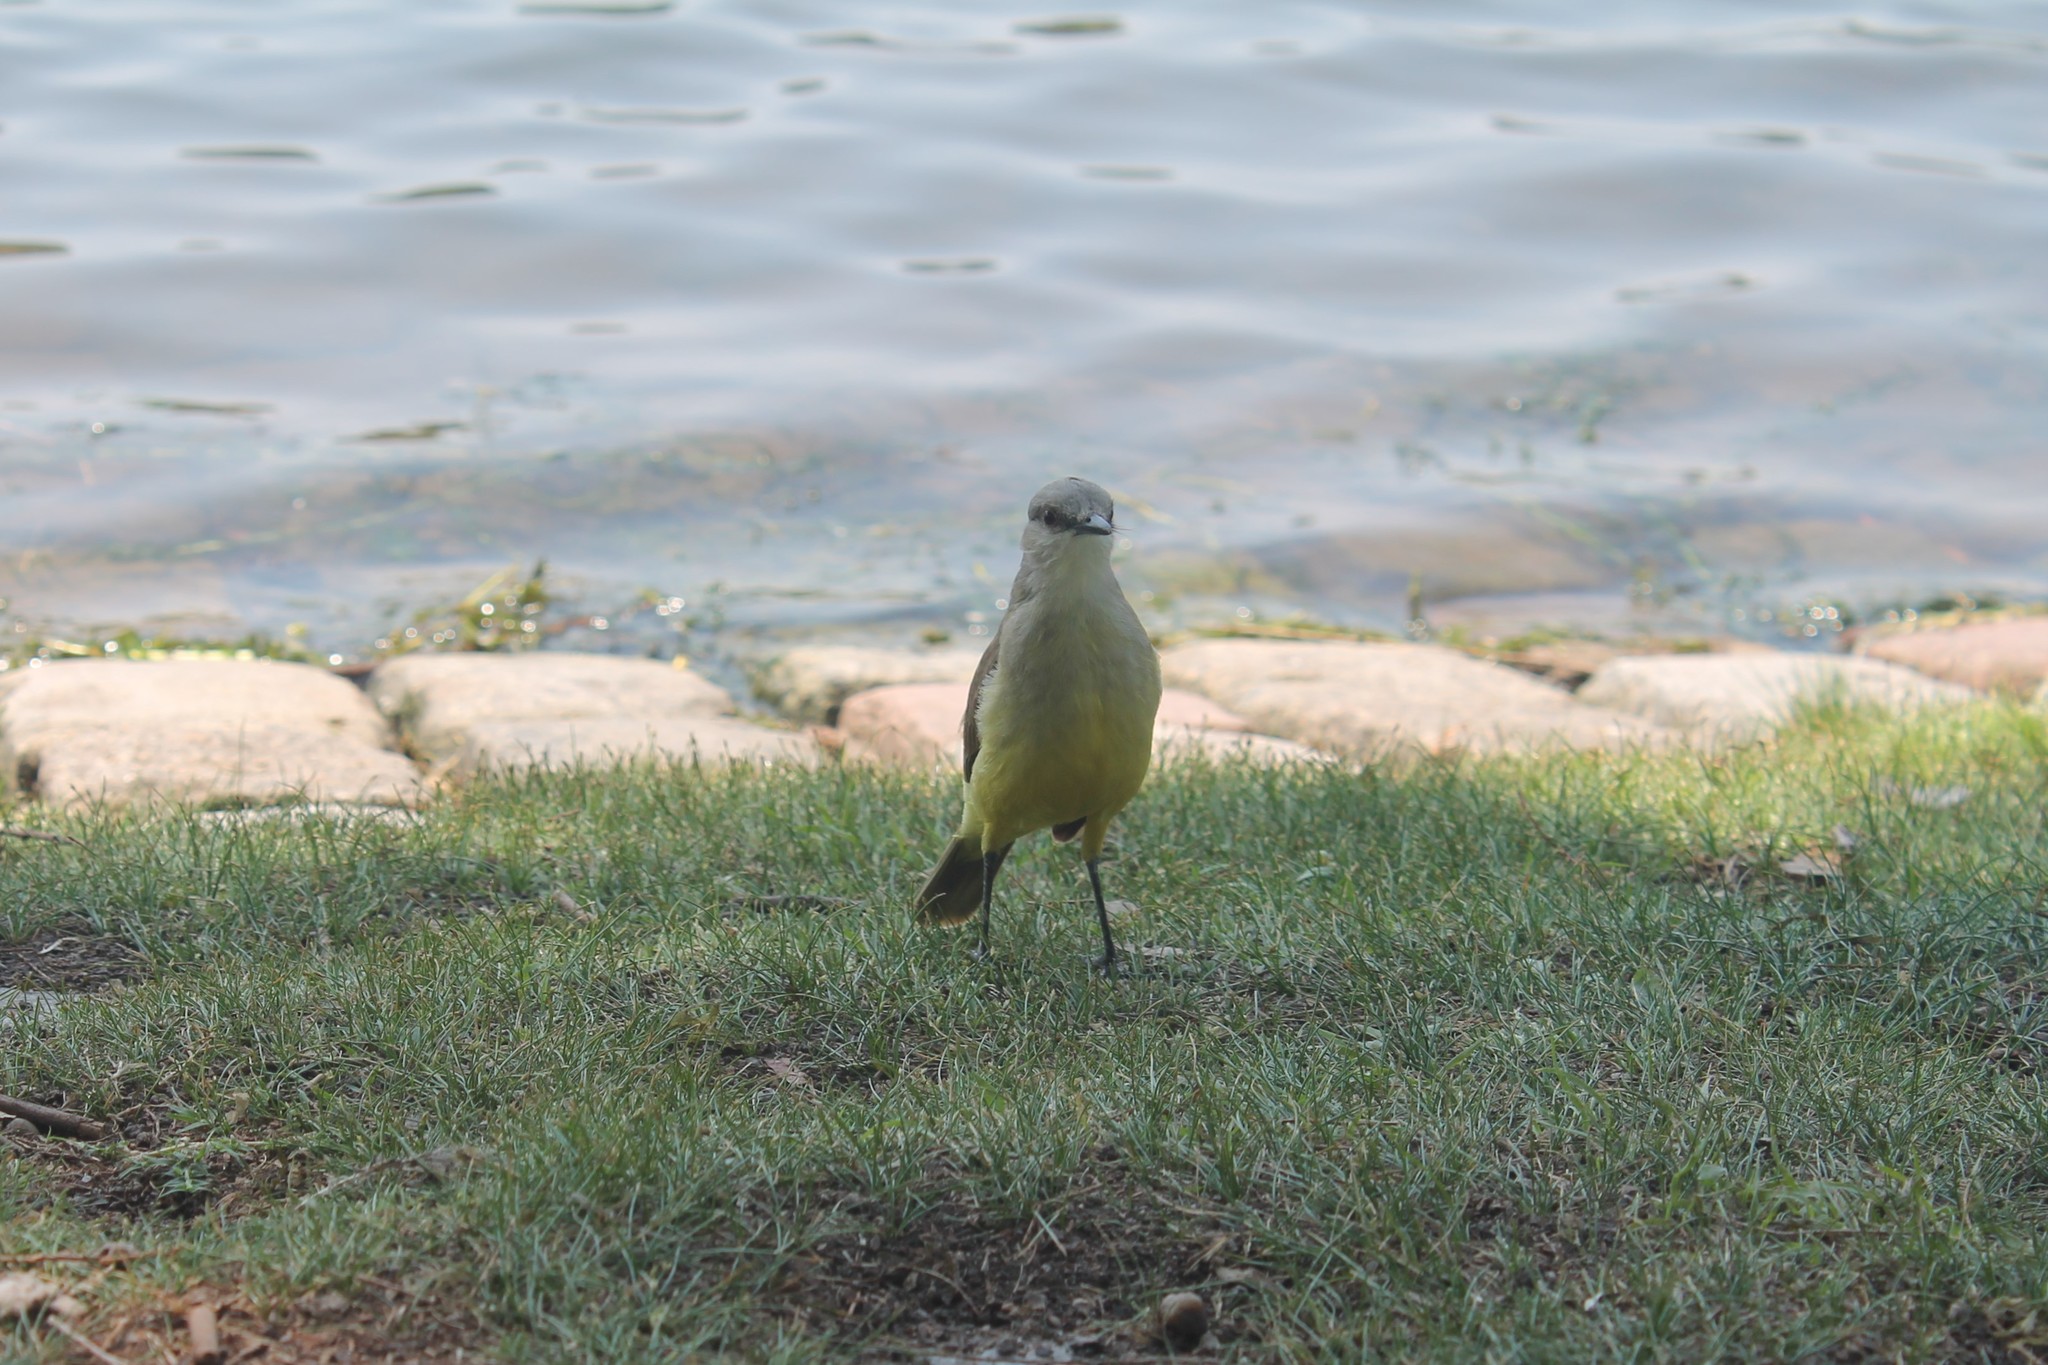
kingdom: Animalia
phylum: Chordata
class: Aves
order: Passeriformes
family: Tyrannidae
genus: Machetornis
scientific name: Machetornis rixosa
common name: Cattle tyrant
